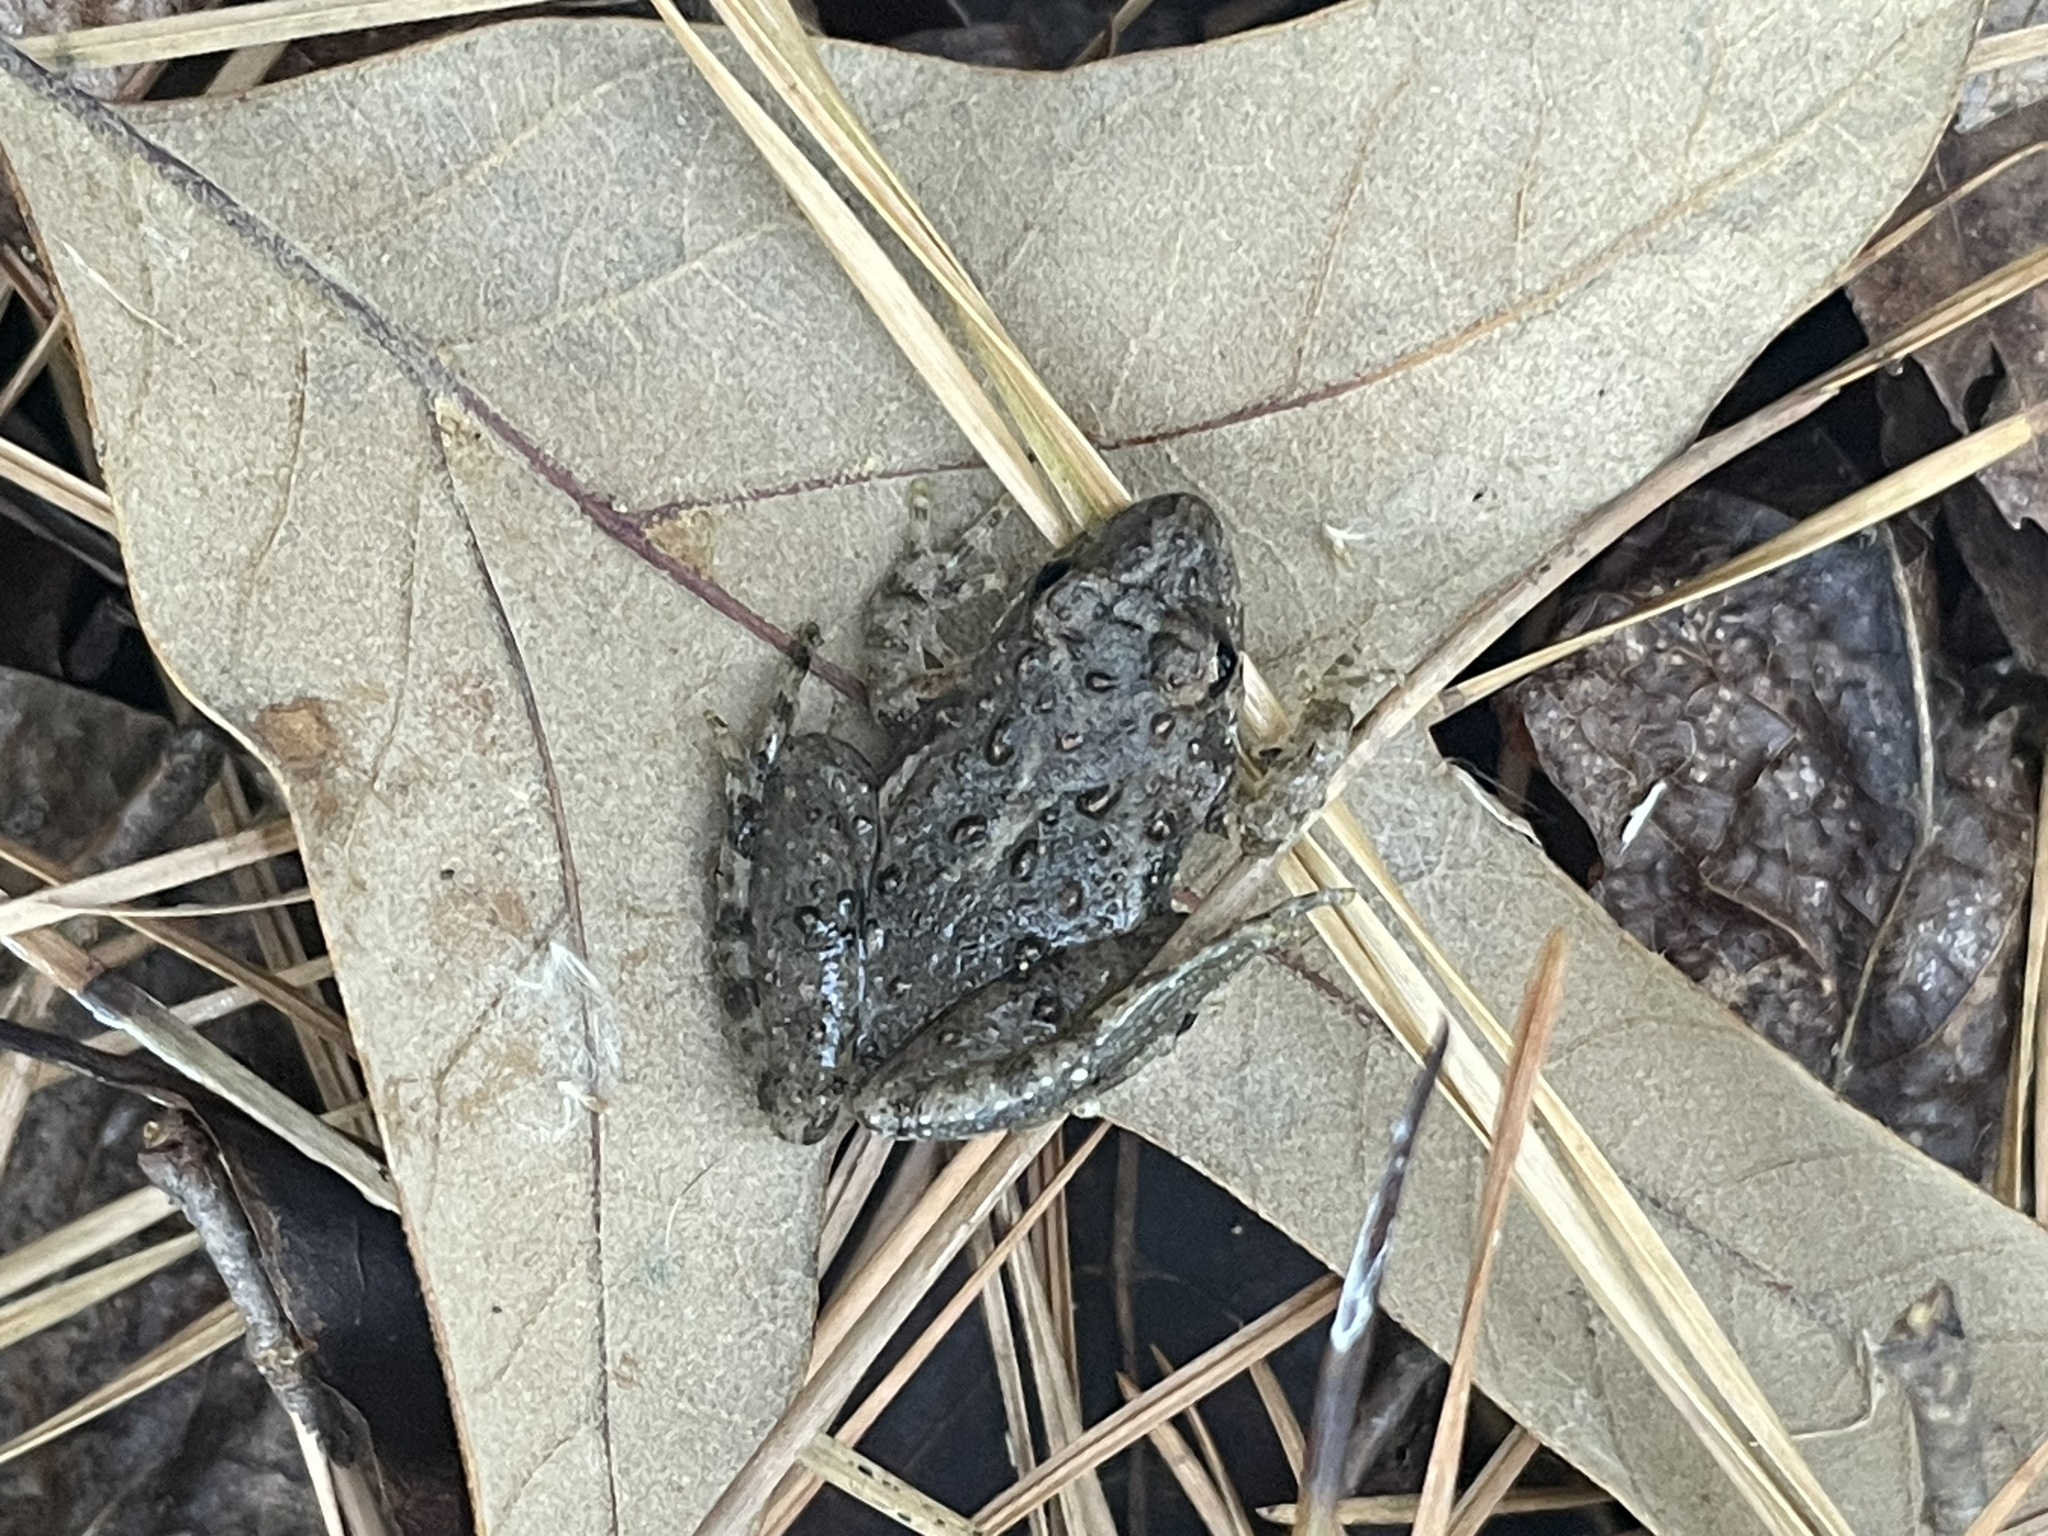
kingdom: Animalia
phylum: Chordata
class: Amphibia
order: Anura
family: Hylidae
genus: Acris
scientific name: Acris crepitans
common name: Northern cricket frog
